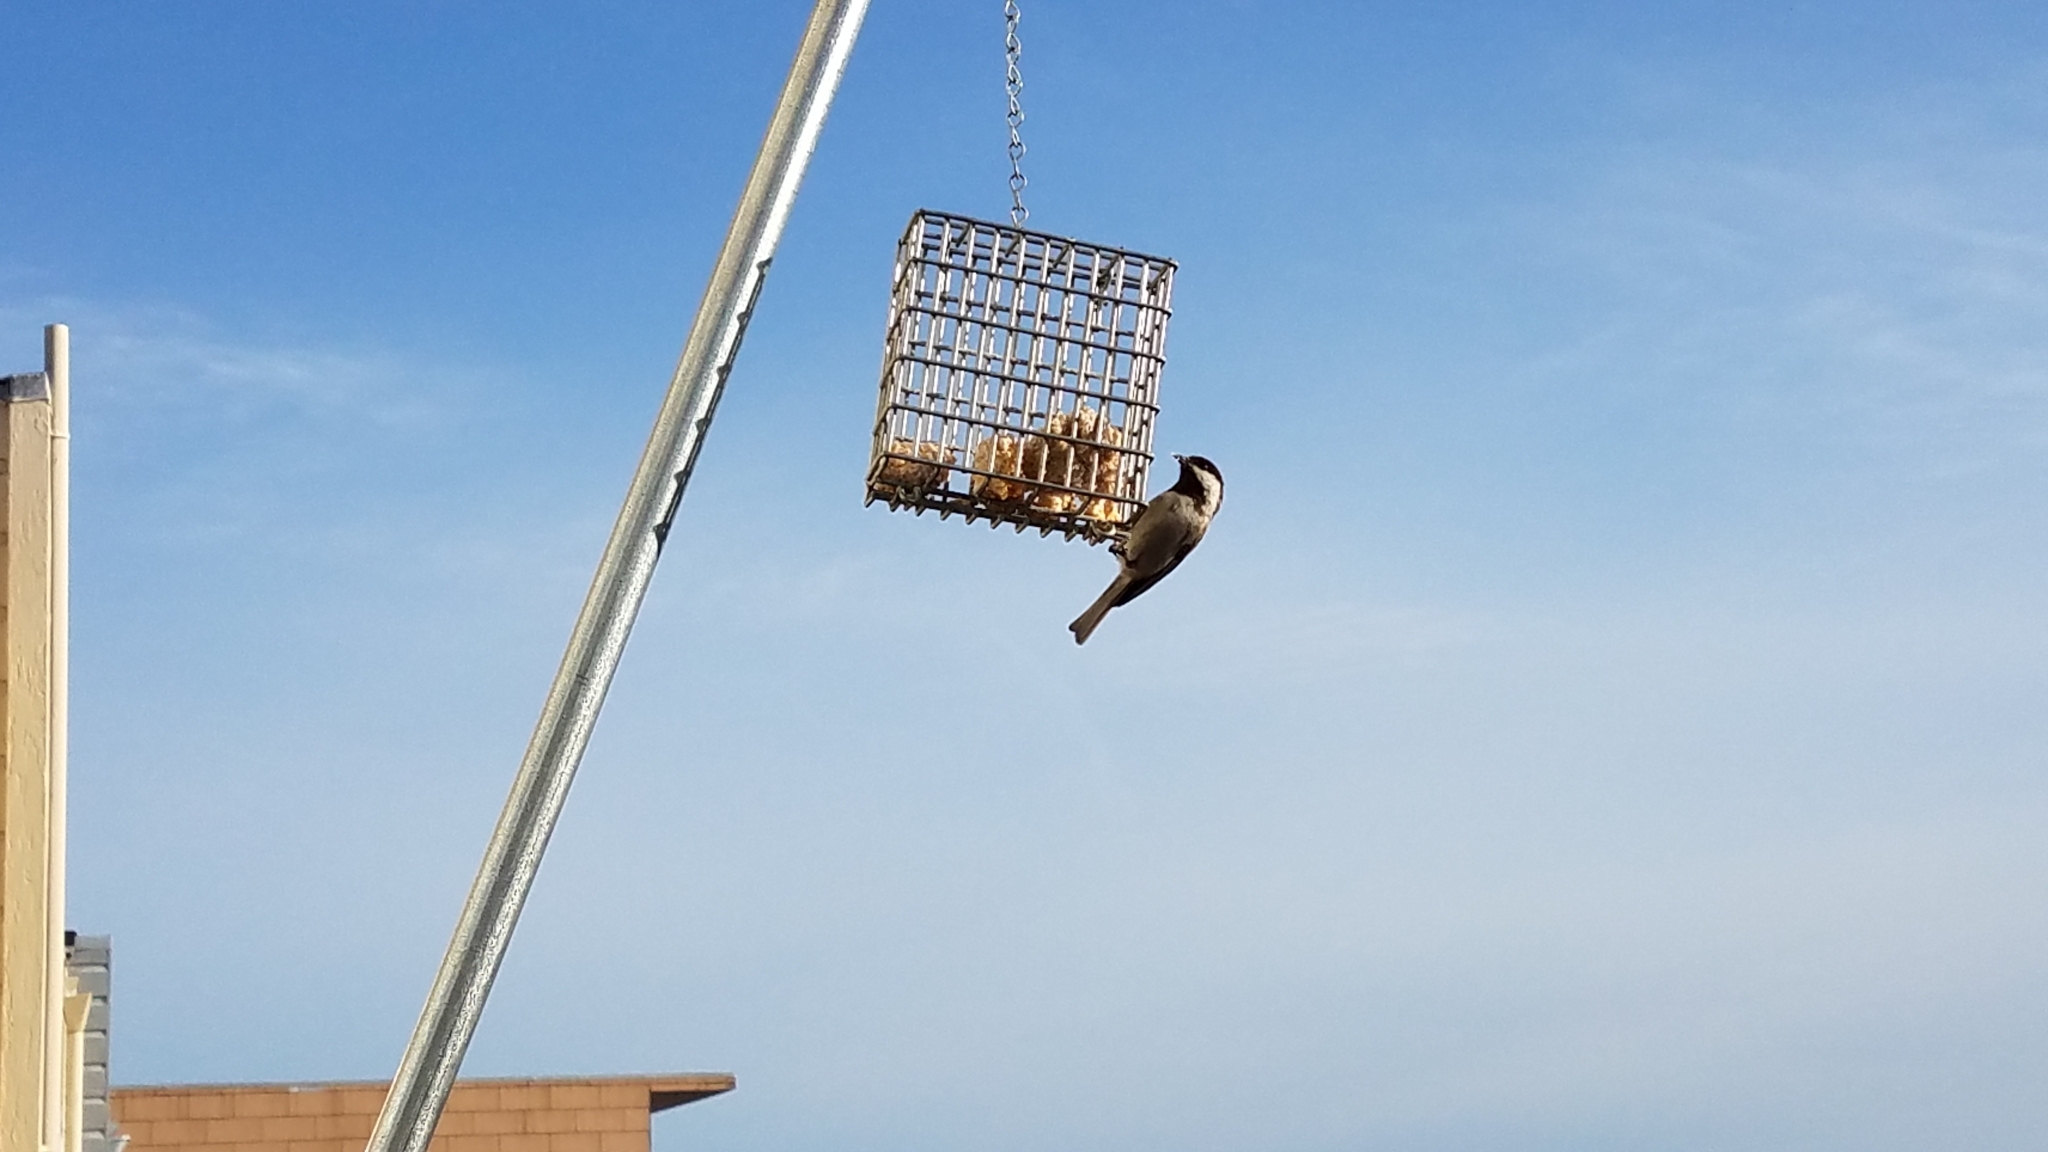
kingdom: Animalia
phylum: Chordata
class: Aves
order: Passeriformes
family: Paridae
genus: Poecile
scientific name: Poecile rufescens
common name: Chestnut-backed chickadee
